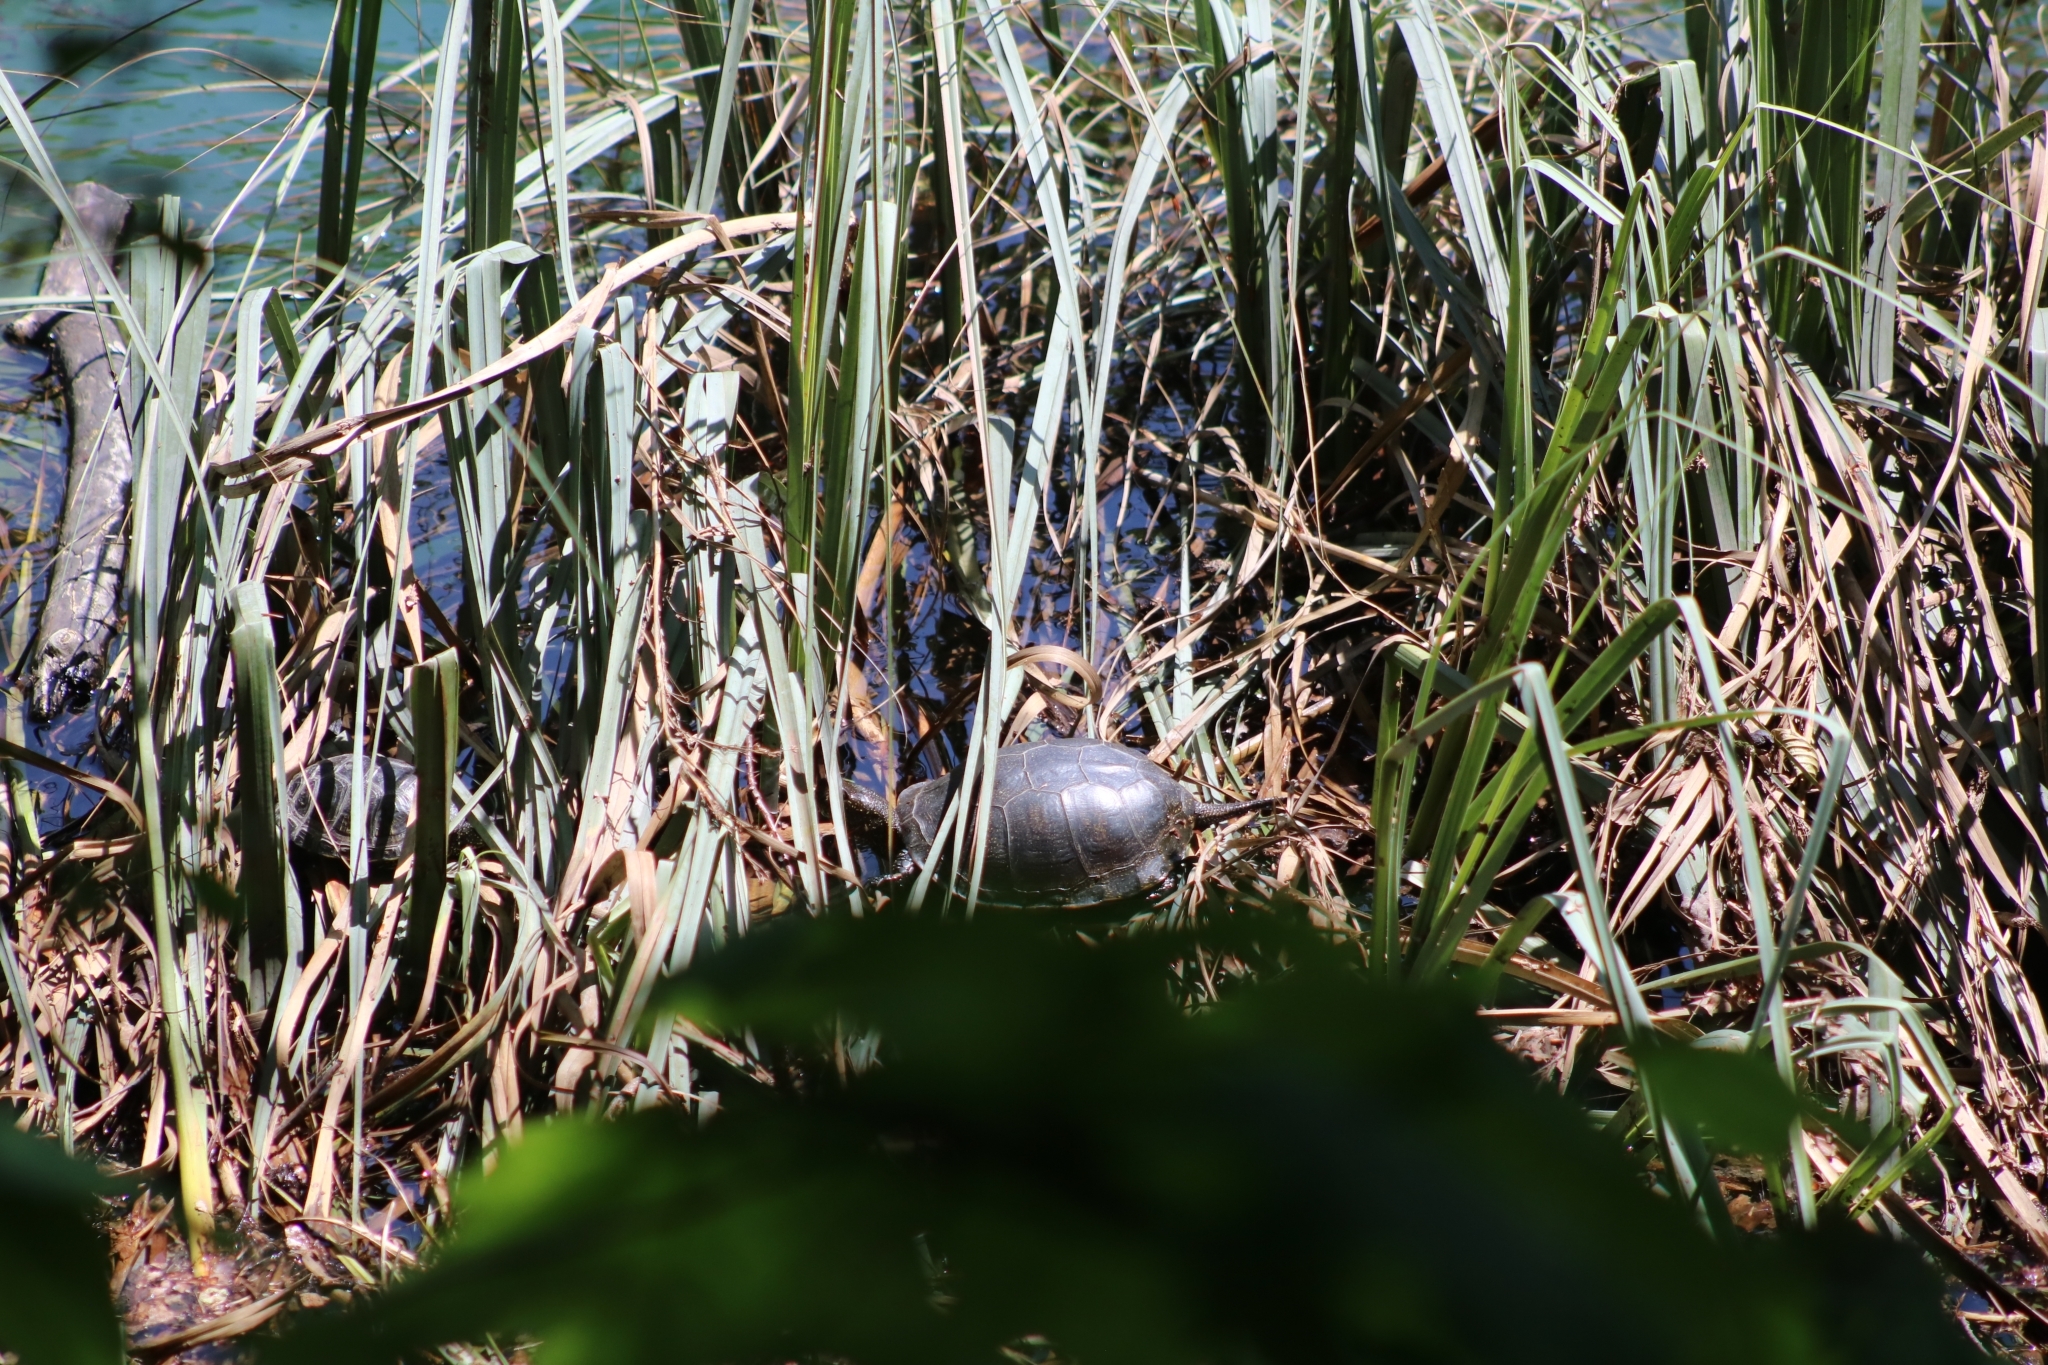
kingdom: Animalia
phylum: Chordata
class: Testudines
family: Emydidae
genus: Emys
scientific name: Emys orbicularis
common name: European pond turtle
